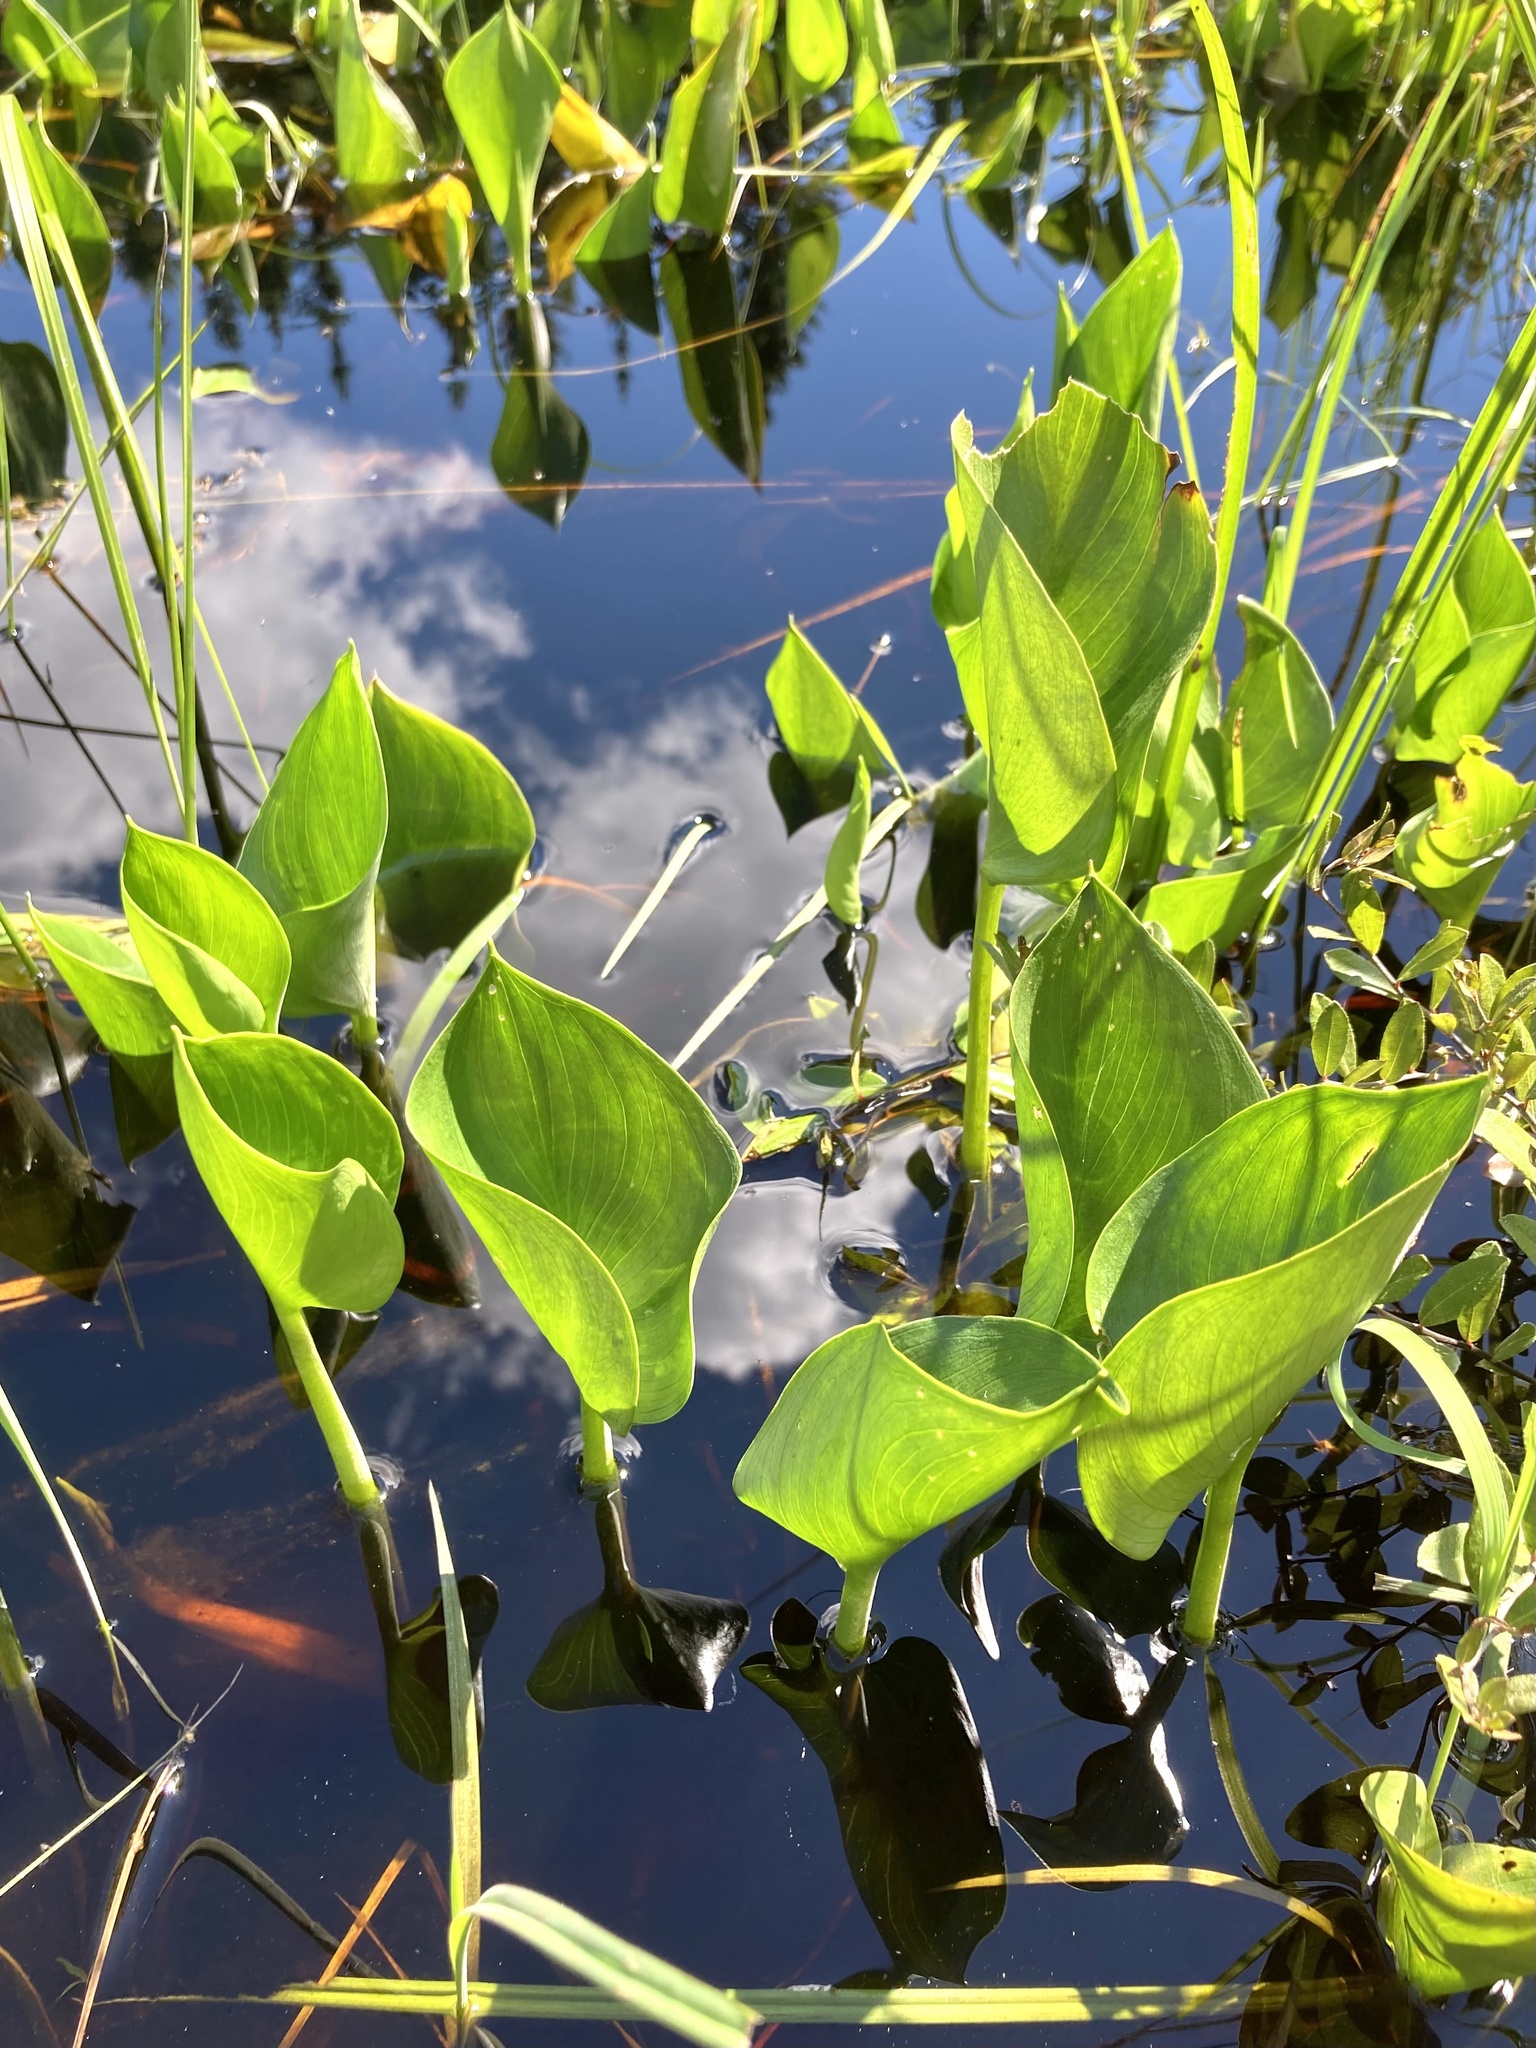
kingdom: Plantae
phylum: Tracheophyta
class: Liliopsida
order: Alismatales
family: Araceae
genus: Calla
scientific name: Calla palustris
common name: Bog arum
